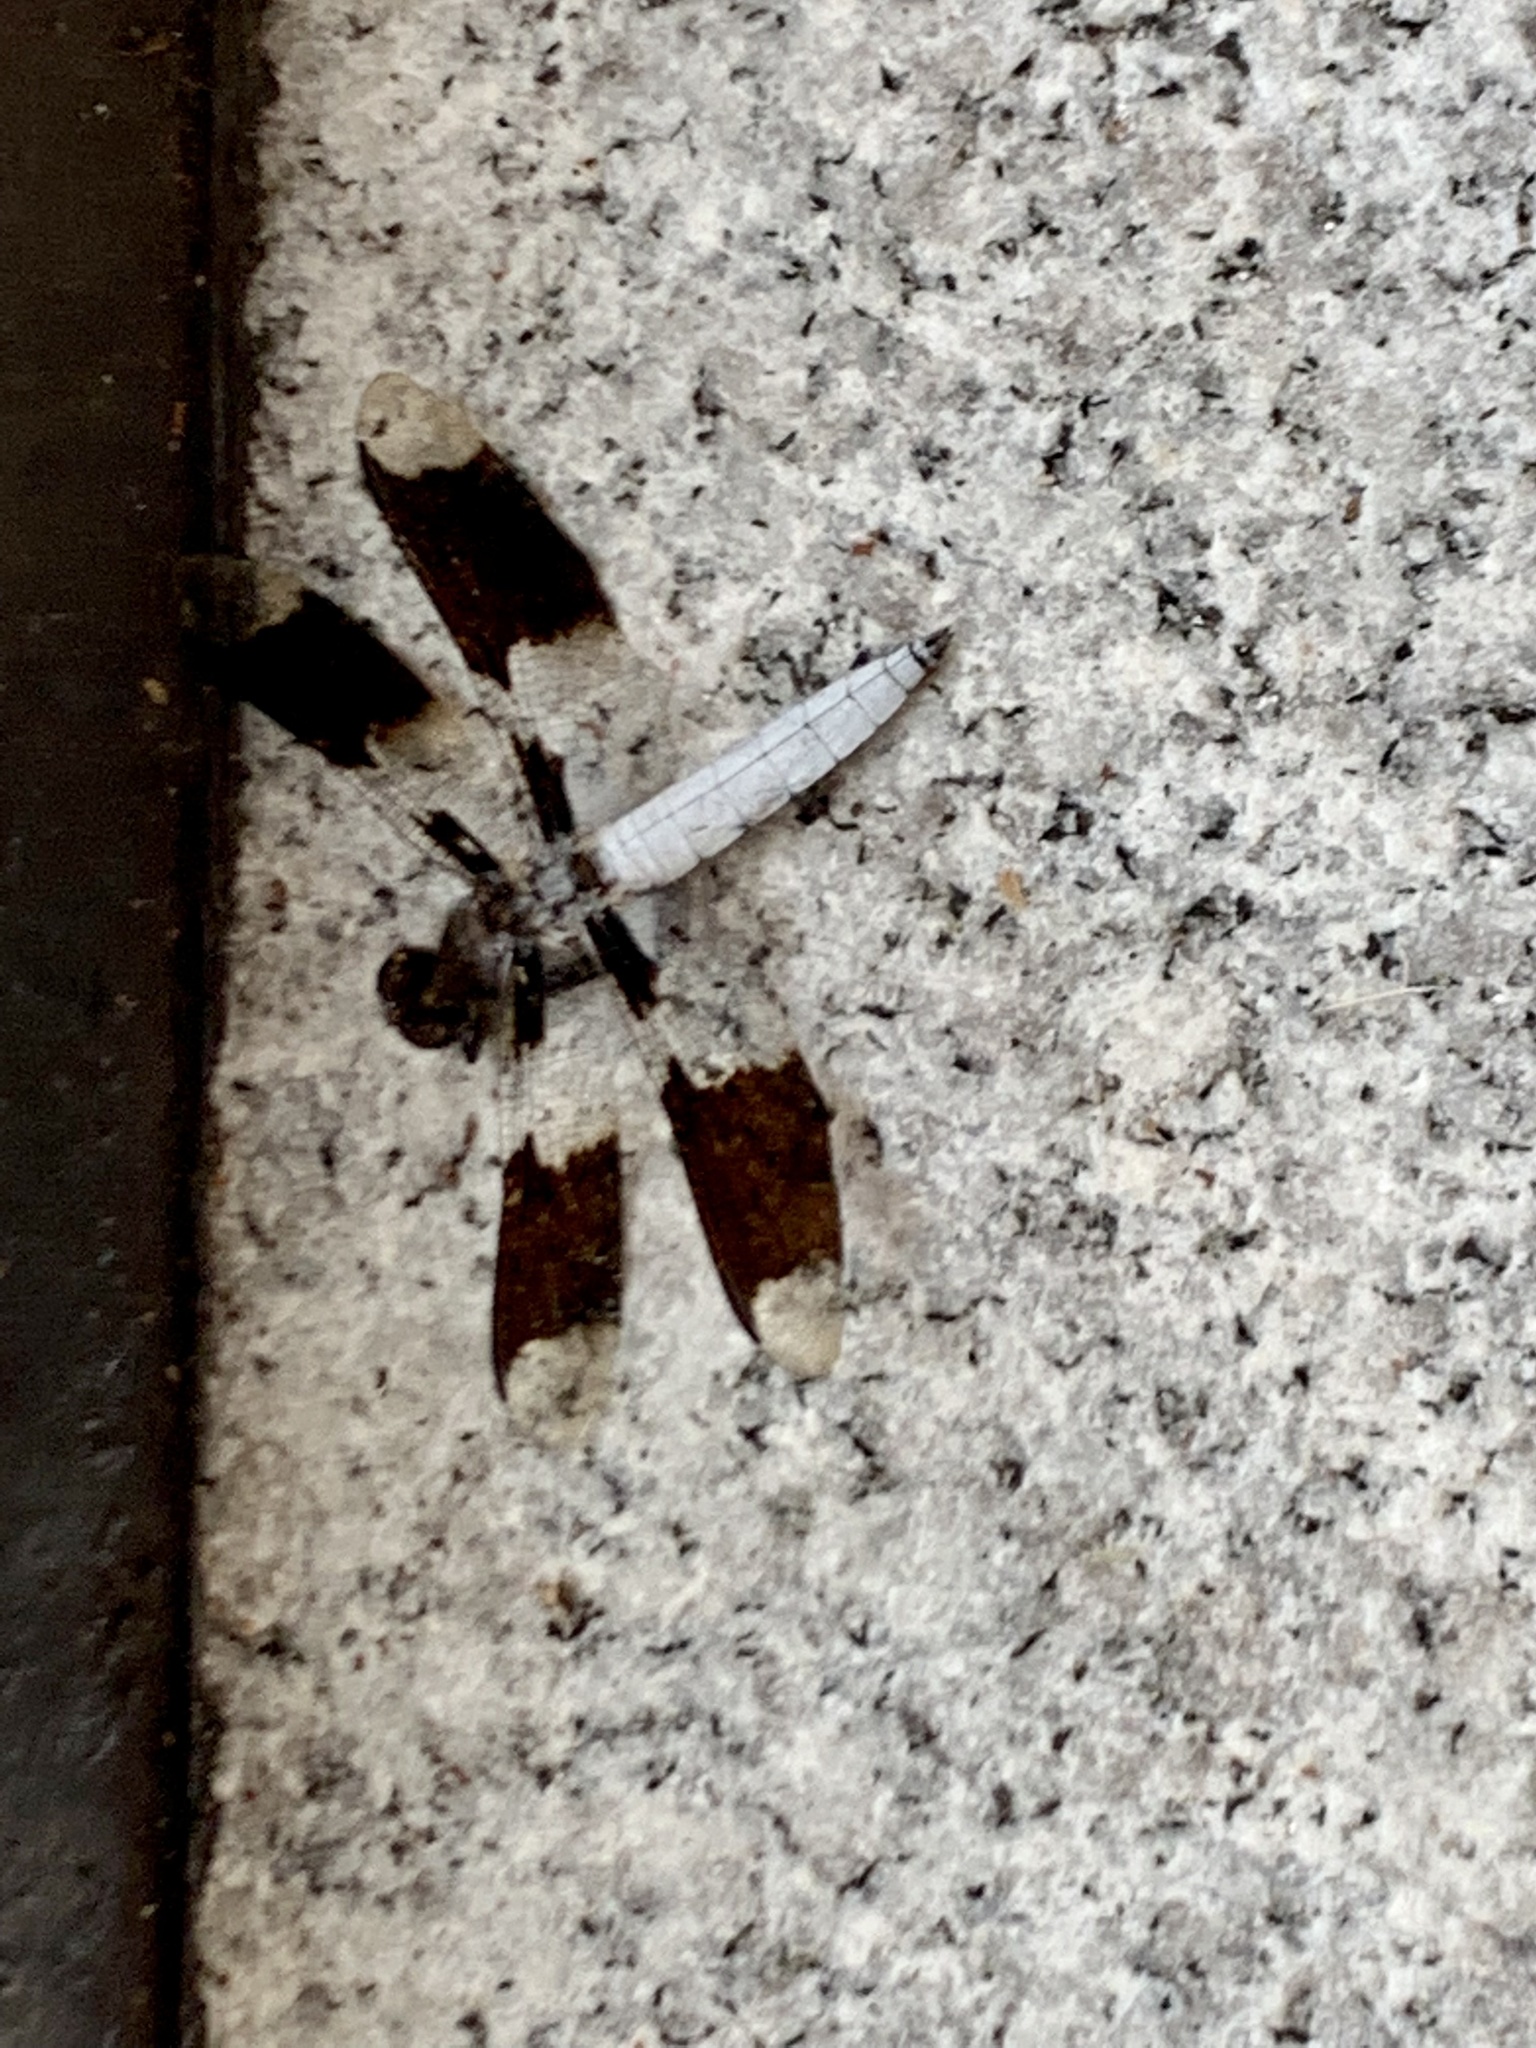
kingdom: Animalia
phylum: Arthropoda
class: Insecta
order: Odonata
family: Libellulidae
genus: Plathemis
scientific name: Plathemis lydia
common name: Common whitetail
